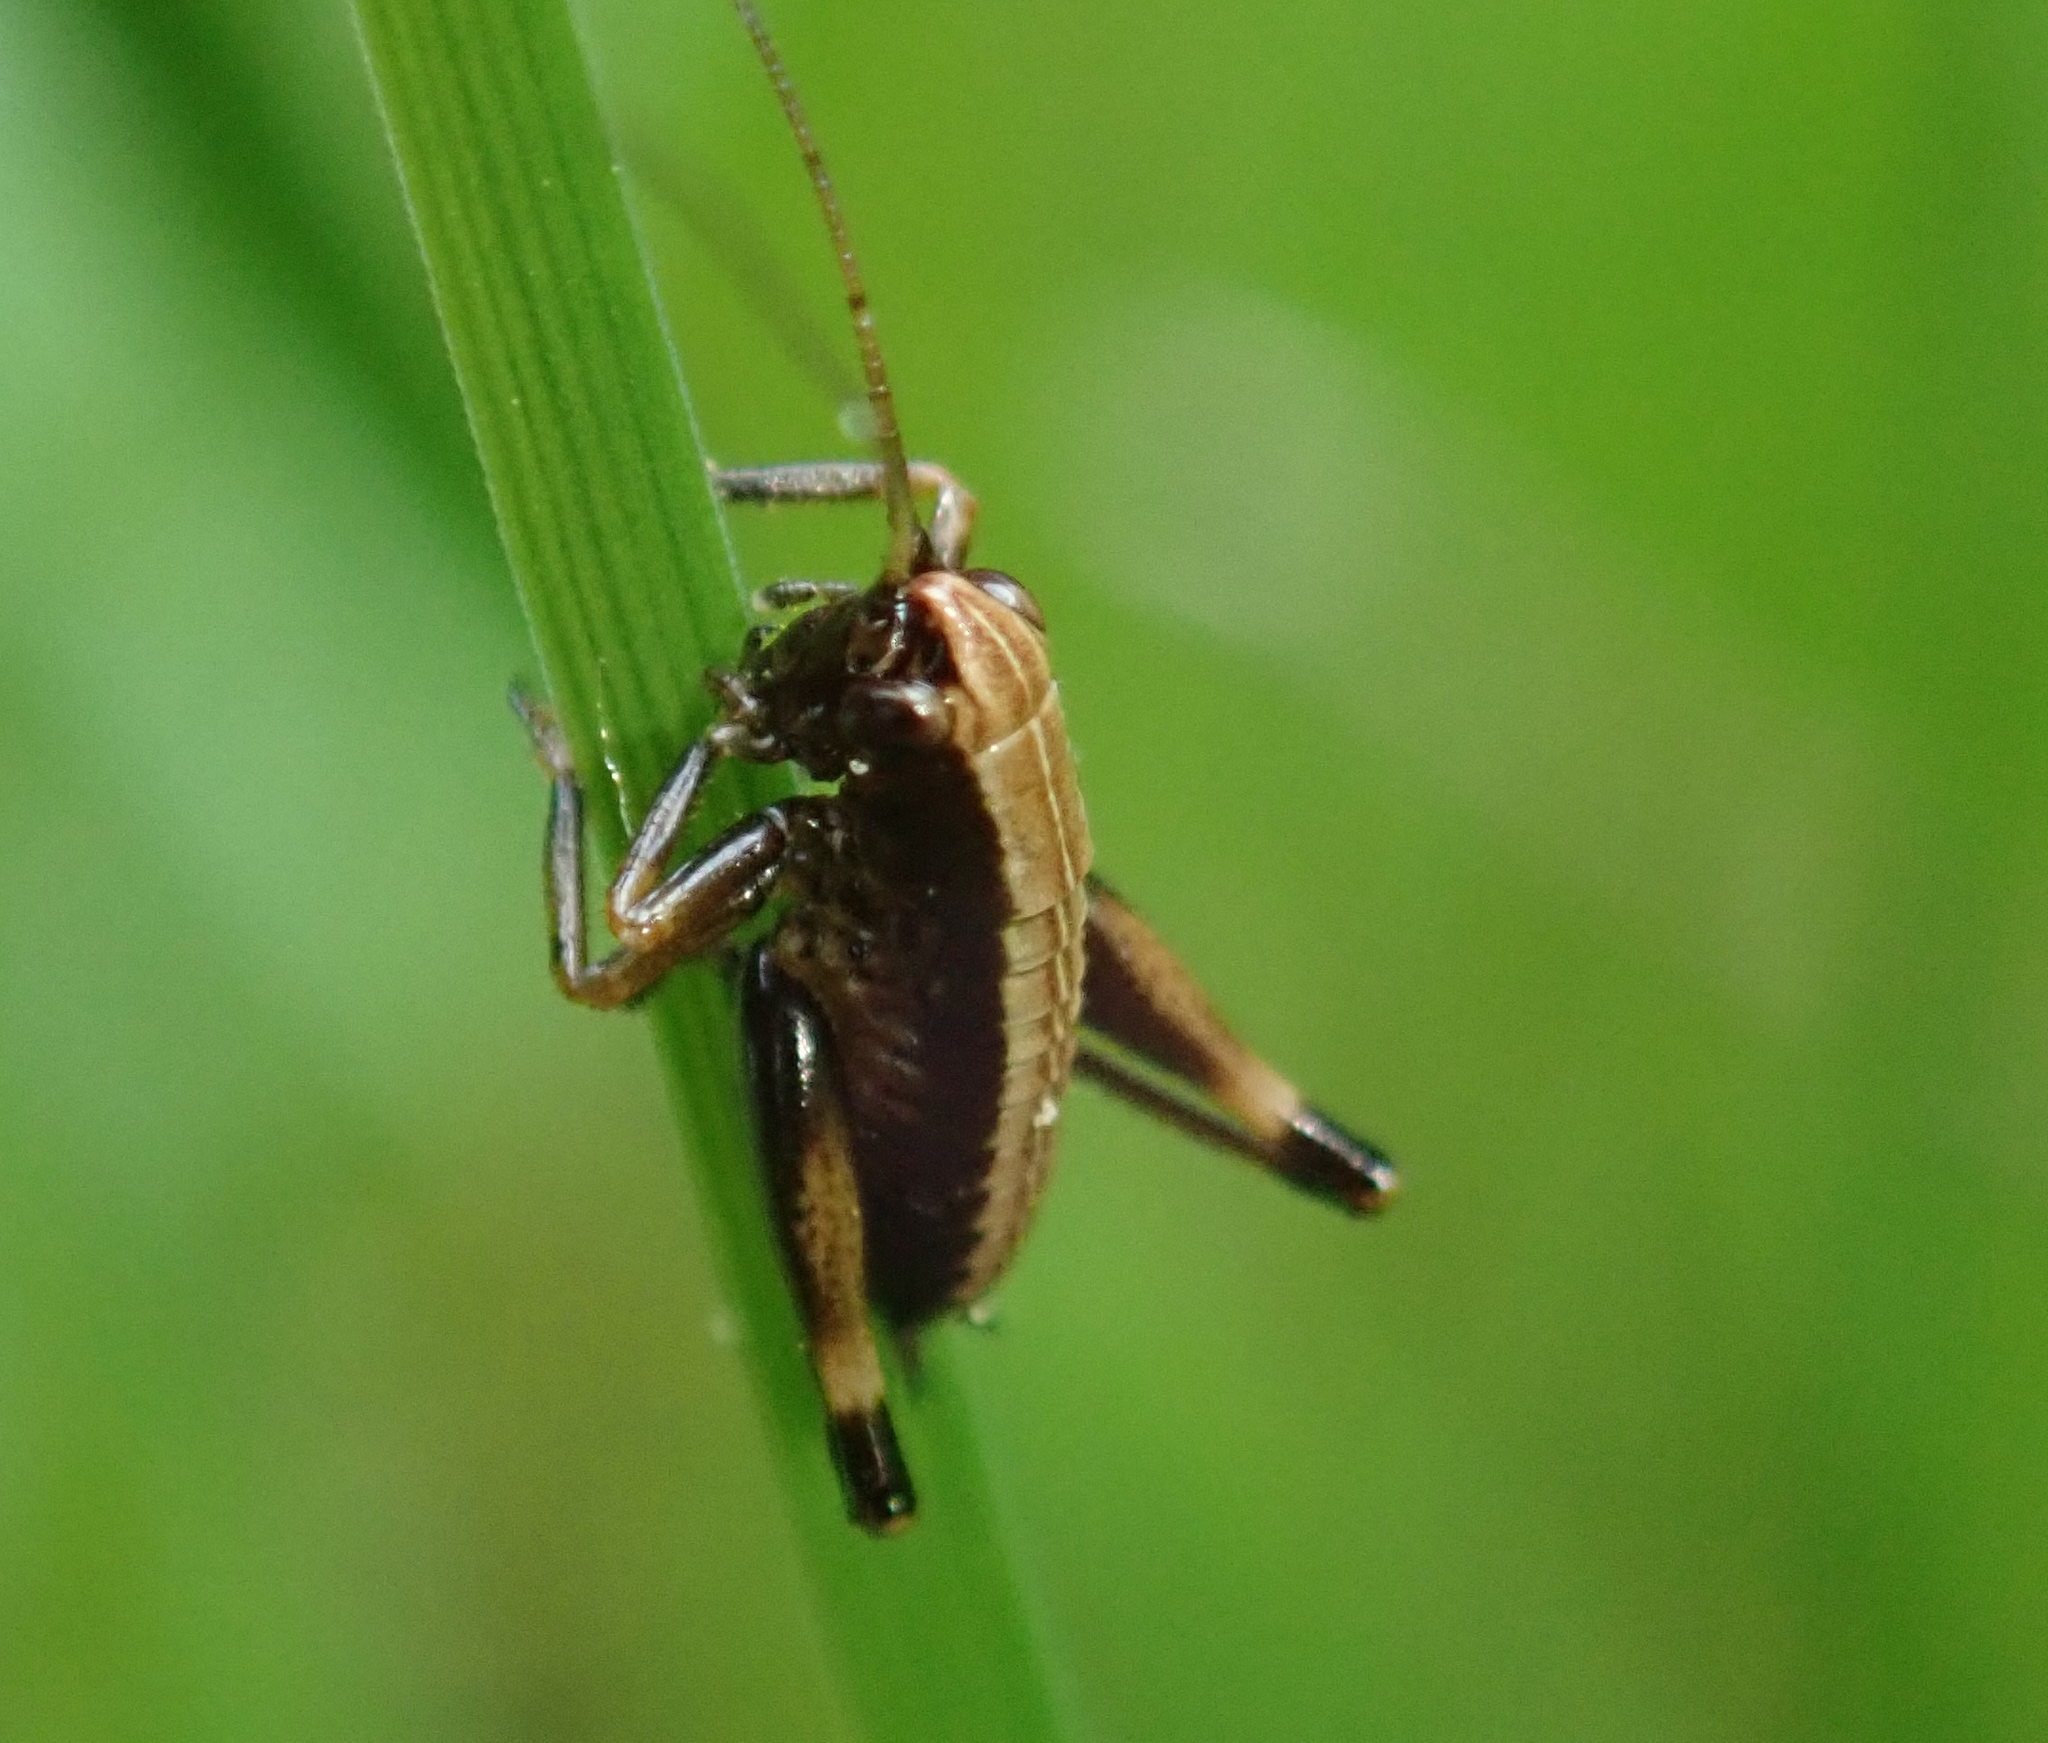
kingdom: Animalia
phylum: Arthropoda
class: Insecta
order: Orthoptera
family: Tettigoniidae
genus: Pholidoptera
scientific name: Pholidoptera griseoaptera
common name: Dark bush-cricket
